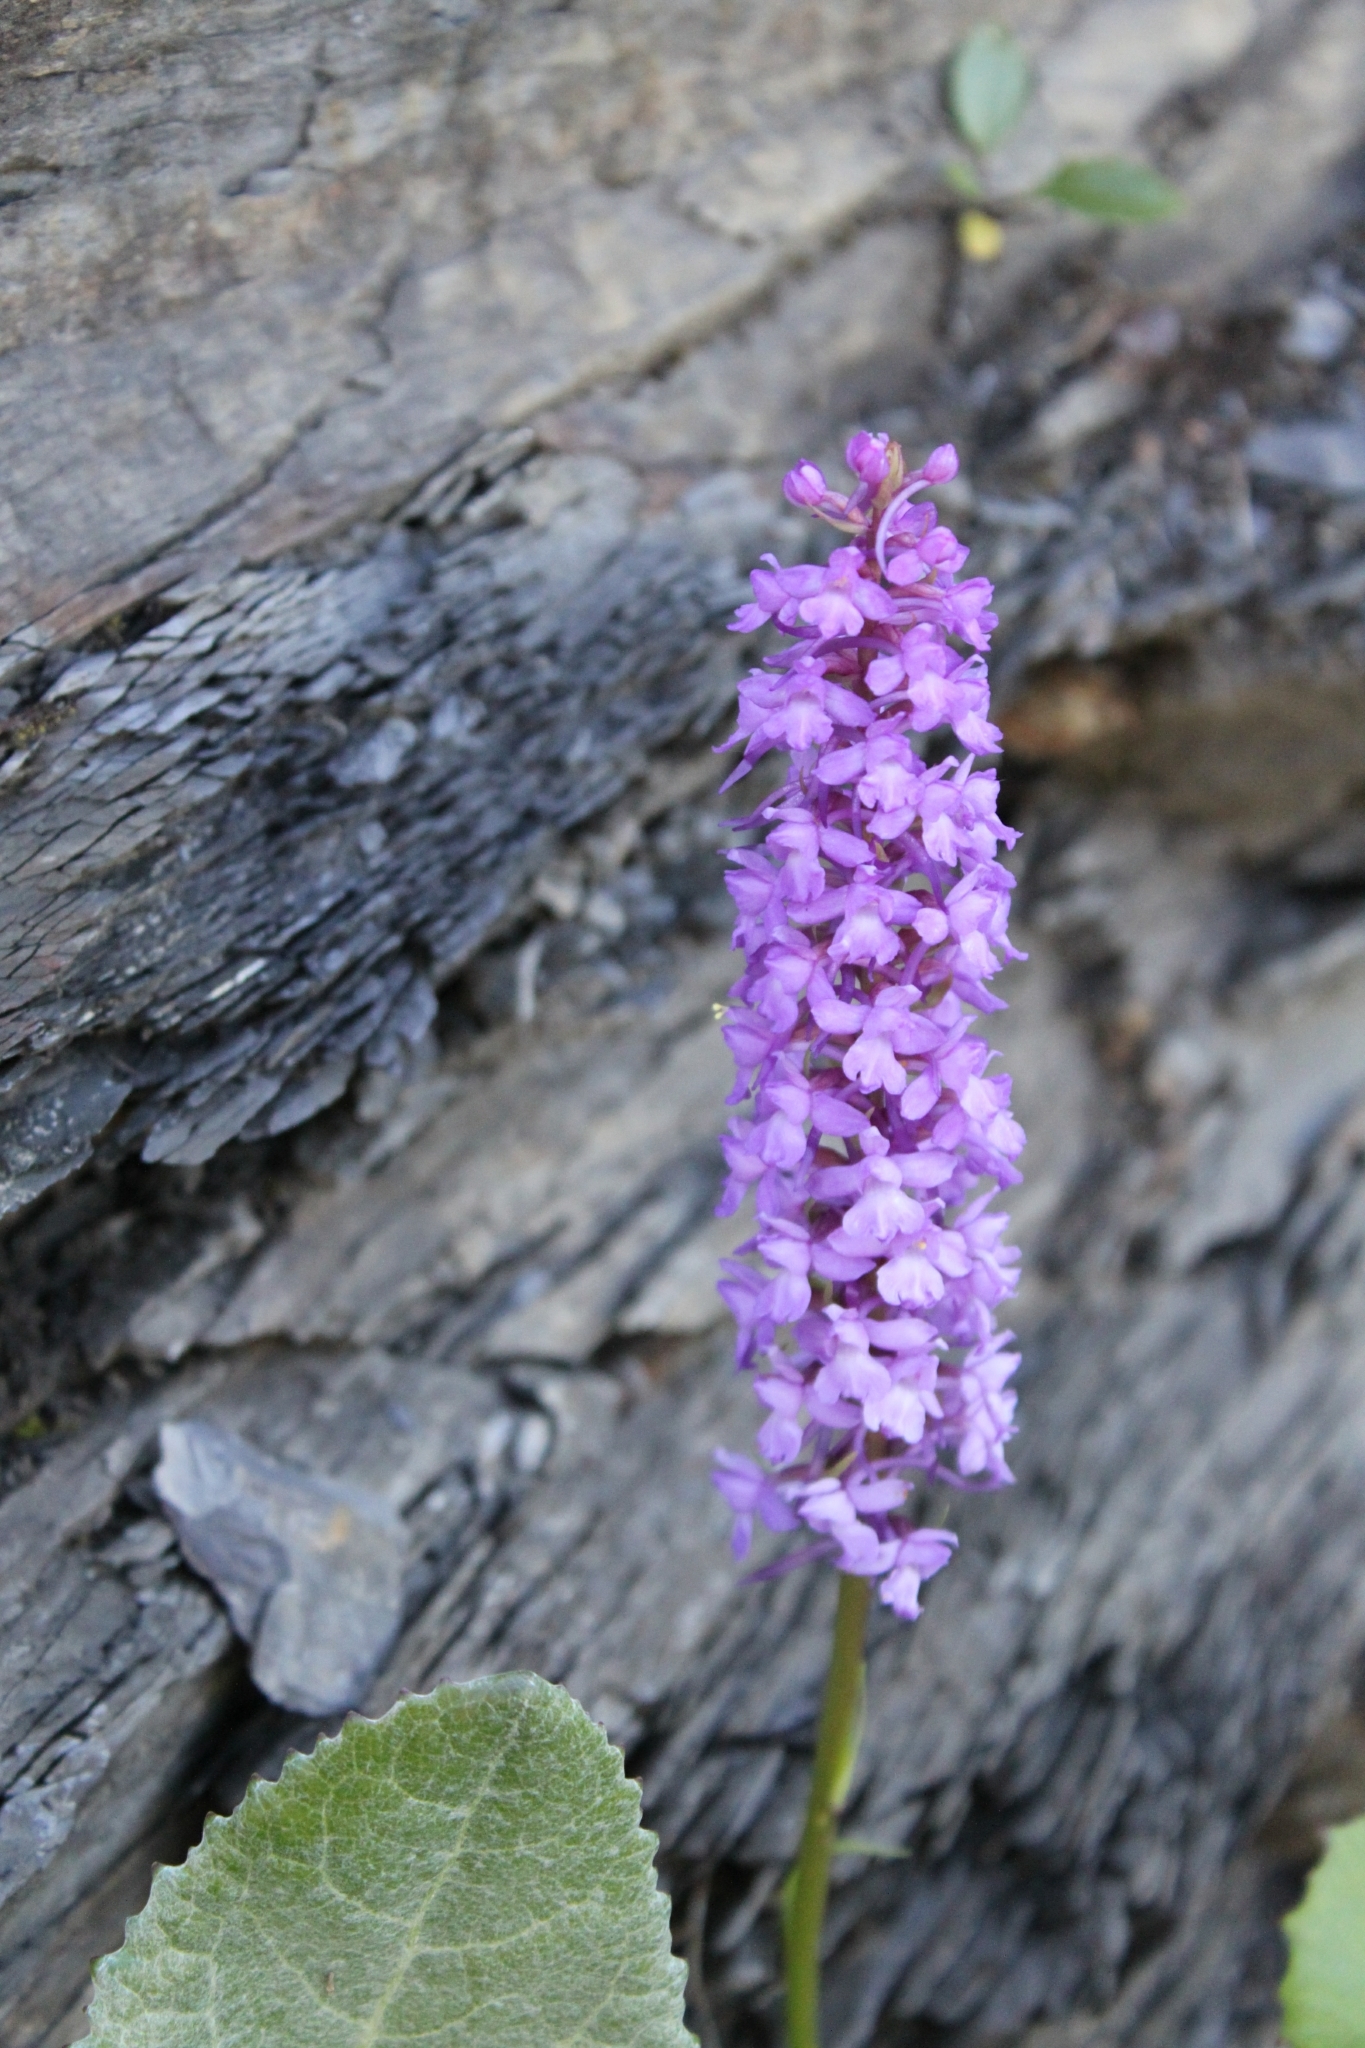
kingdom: Plantae
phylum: Tracheophyta
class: Liliopsida
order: Asparagales
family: Orchidaceae
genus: Gymnadenia
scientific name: Gymnadenia conopsea
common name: Fragrant orchid
